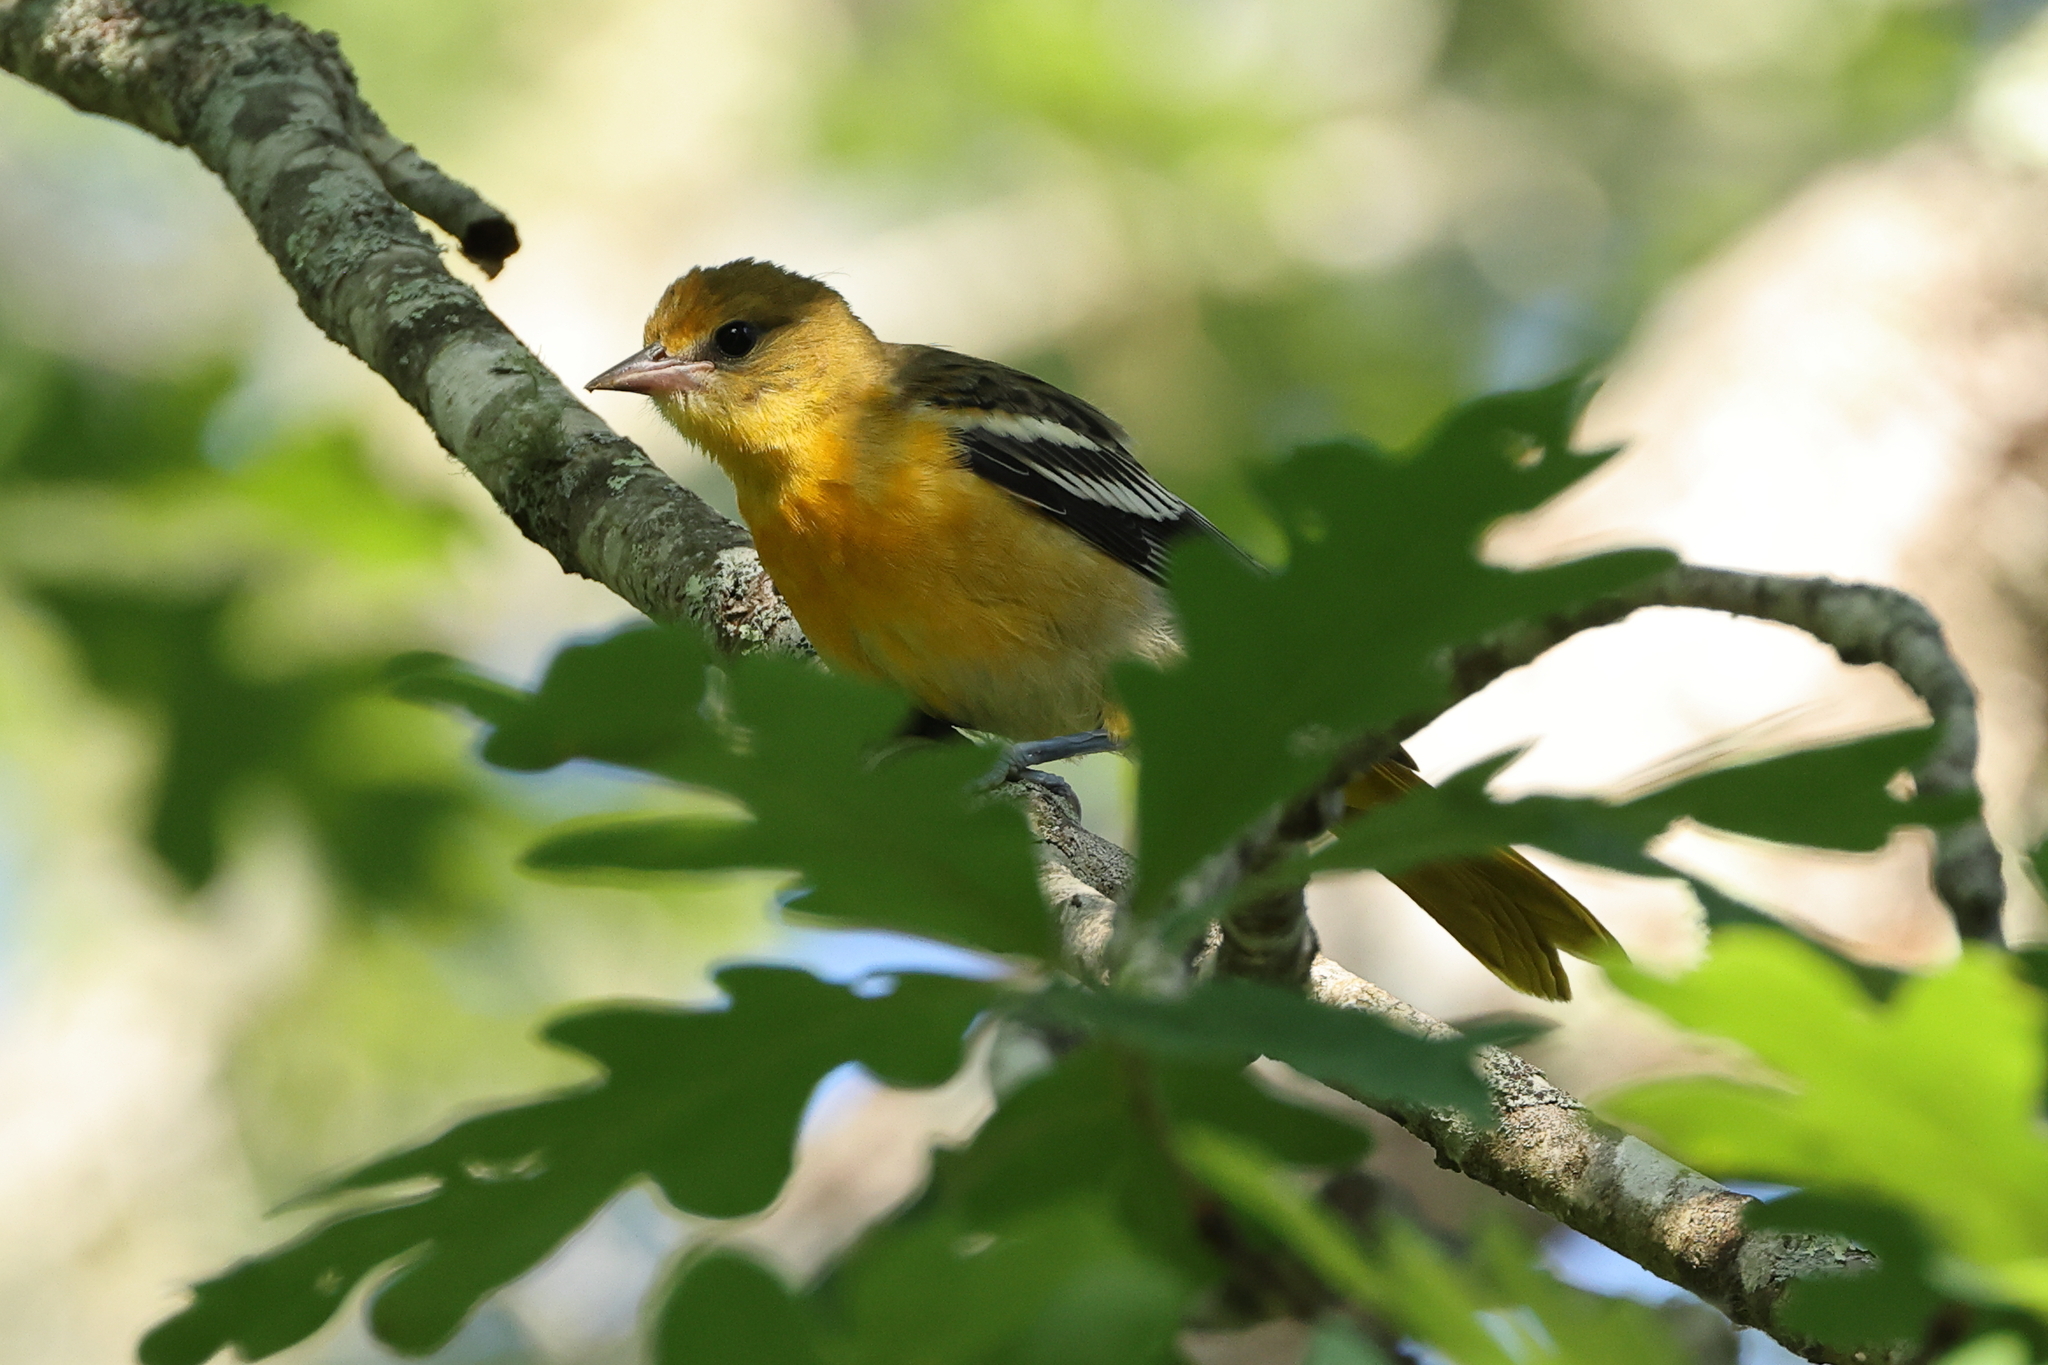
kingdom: Animalia
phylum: Chordata
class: Aves
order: Passeriformes
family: Icteridae
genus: Icterus
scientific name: Icterus galbula
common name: Baltimore oriole
